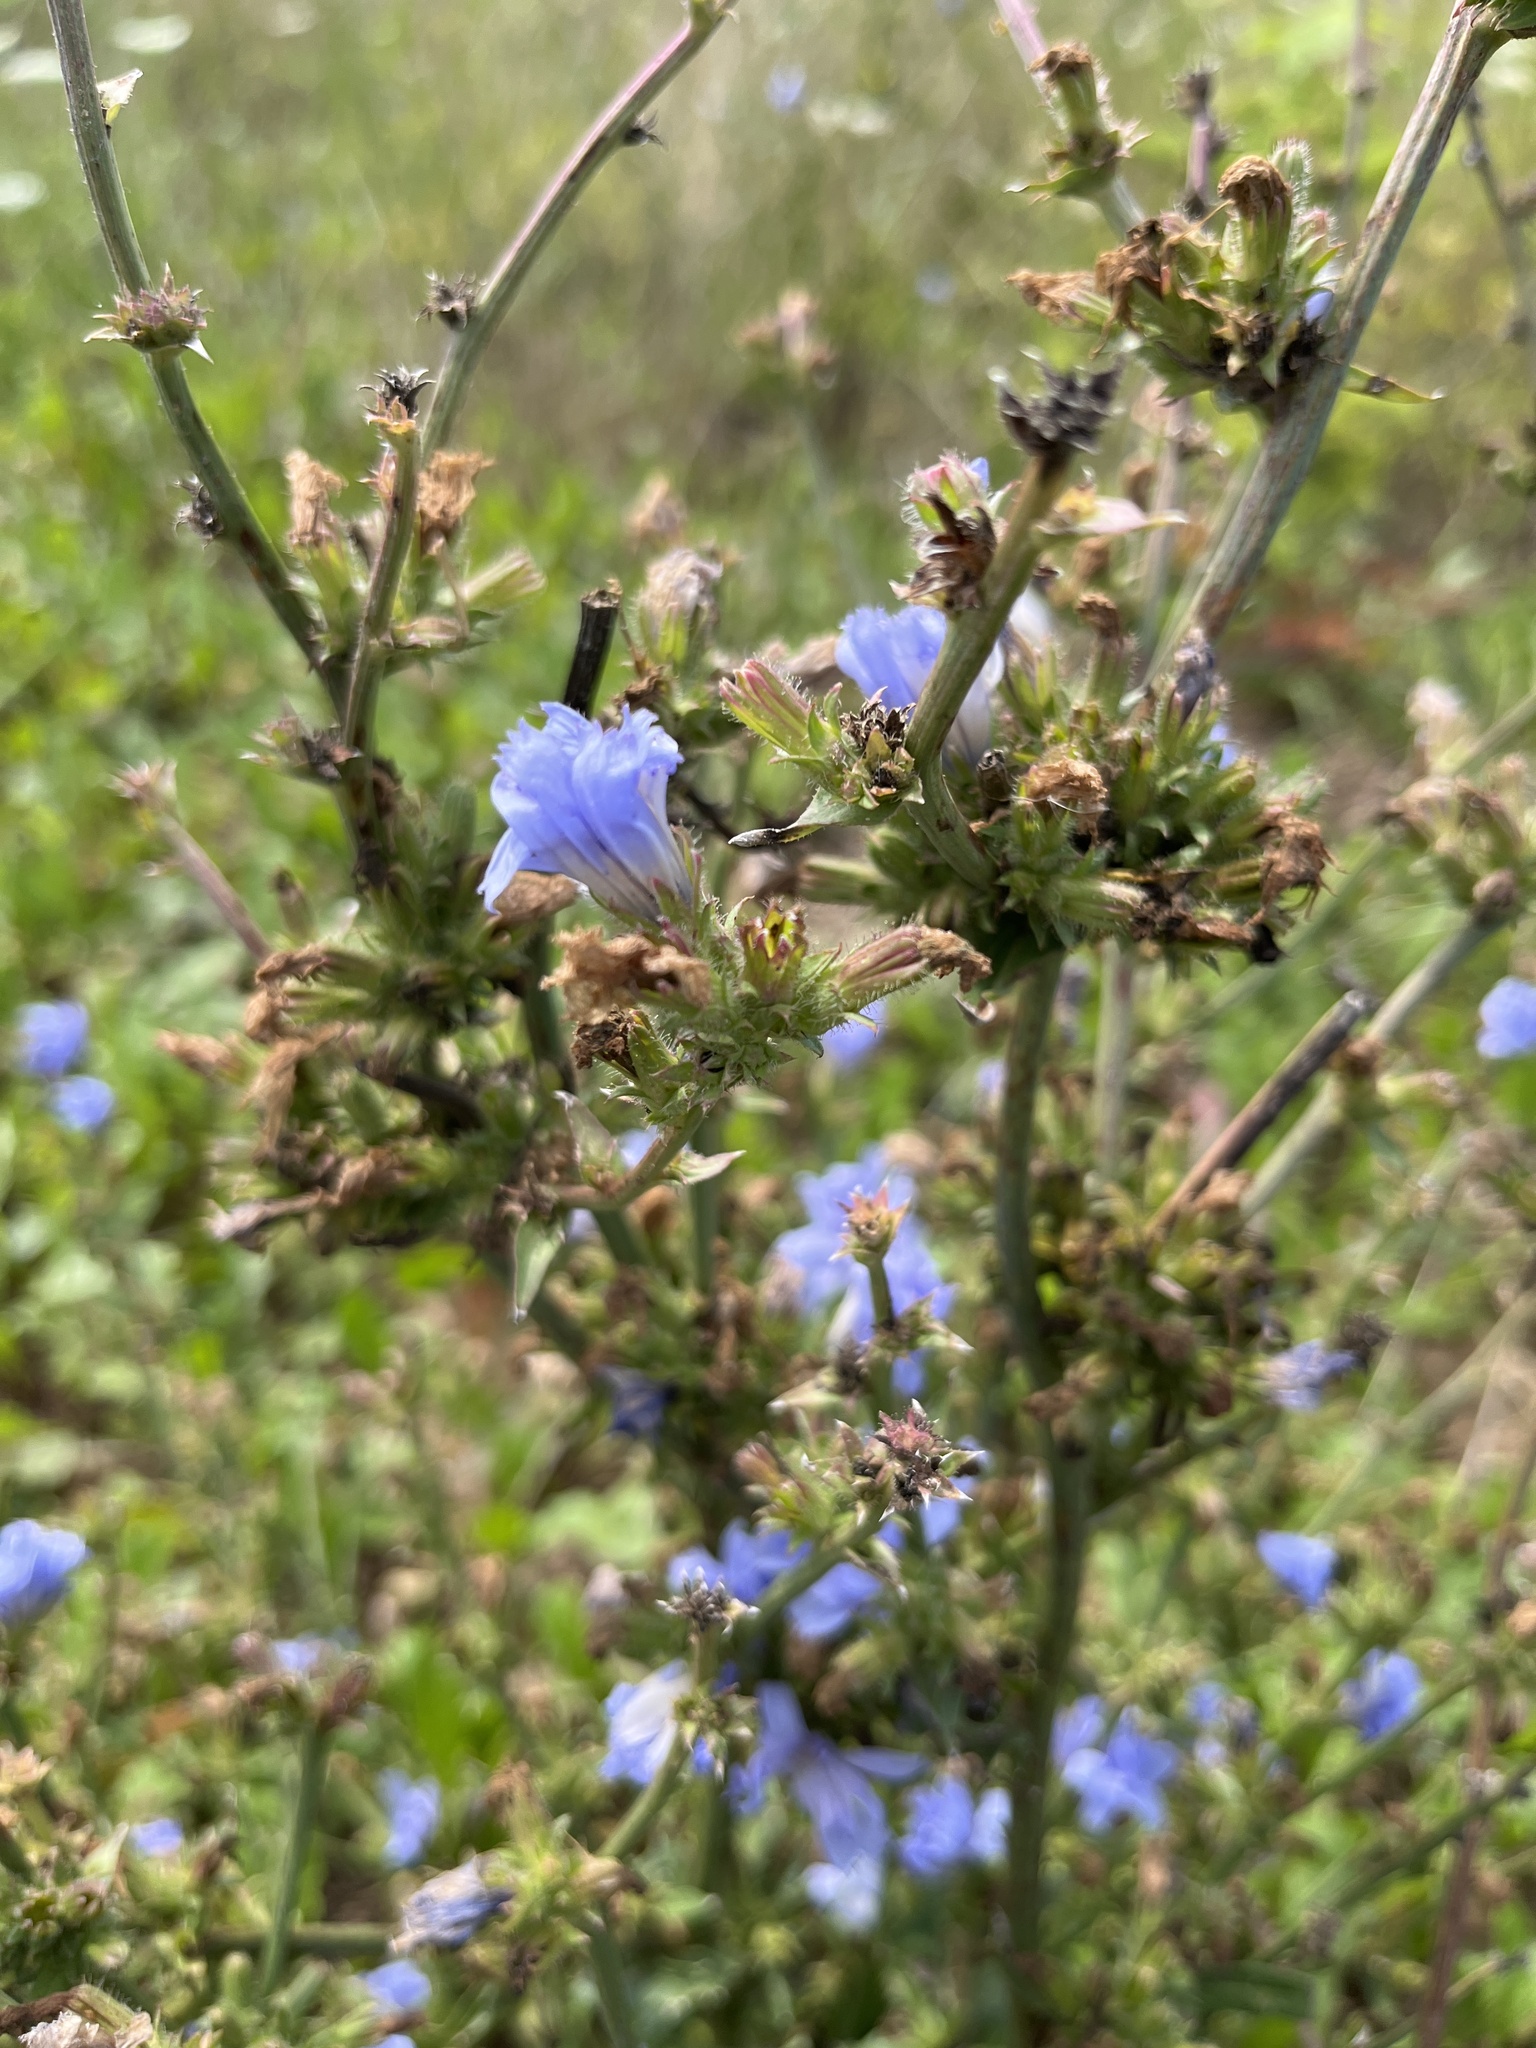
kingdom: Plantae
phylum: Tracheophyta
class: Magnoliopsida
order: Asterales
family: Asteraceae
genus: Cichorium
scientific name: Cichorium intybus
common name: Chicory
